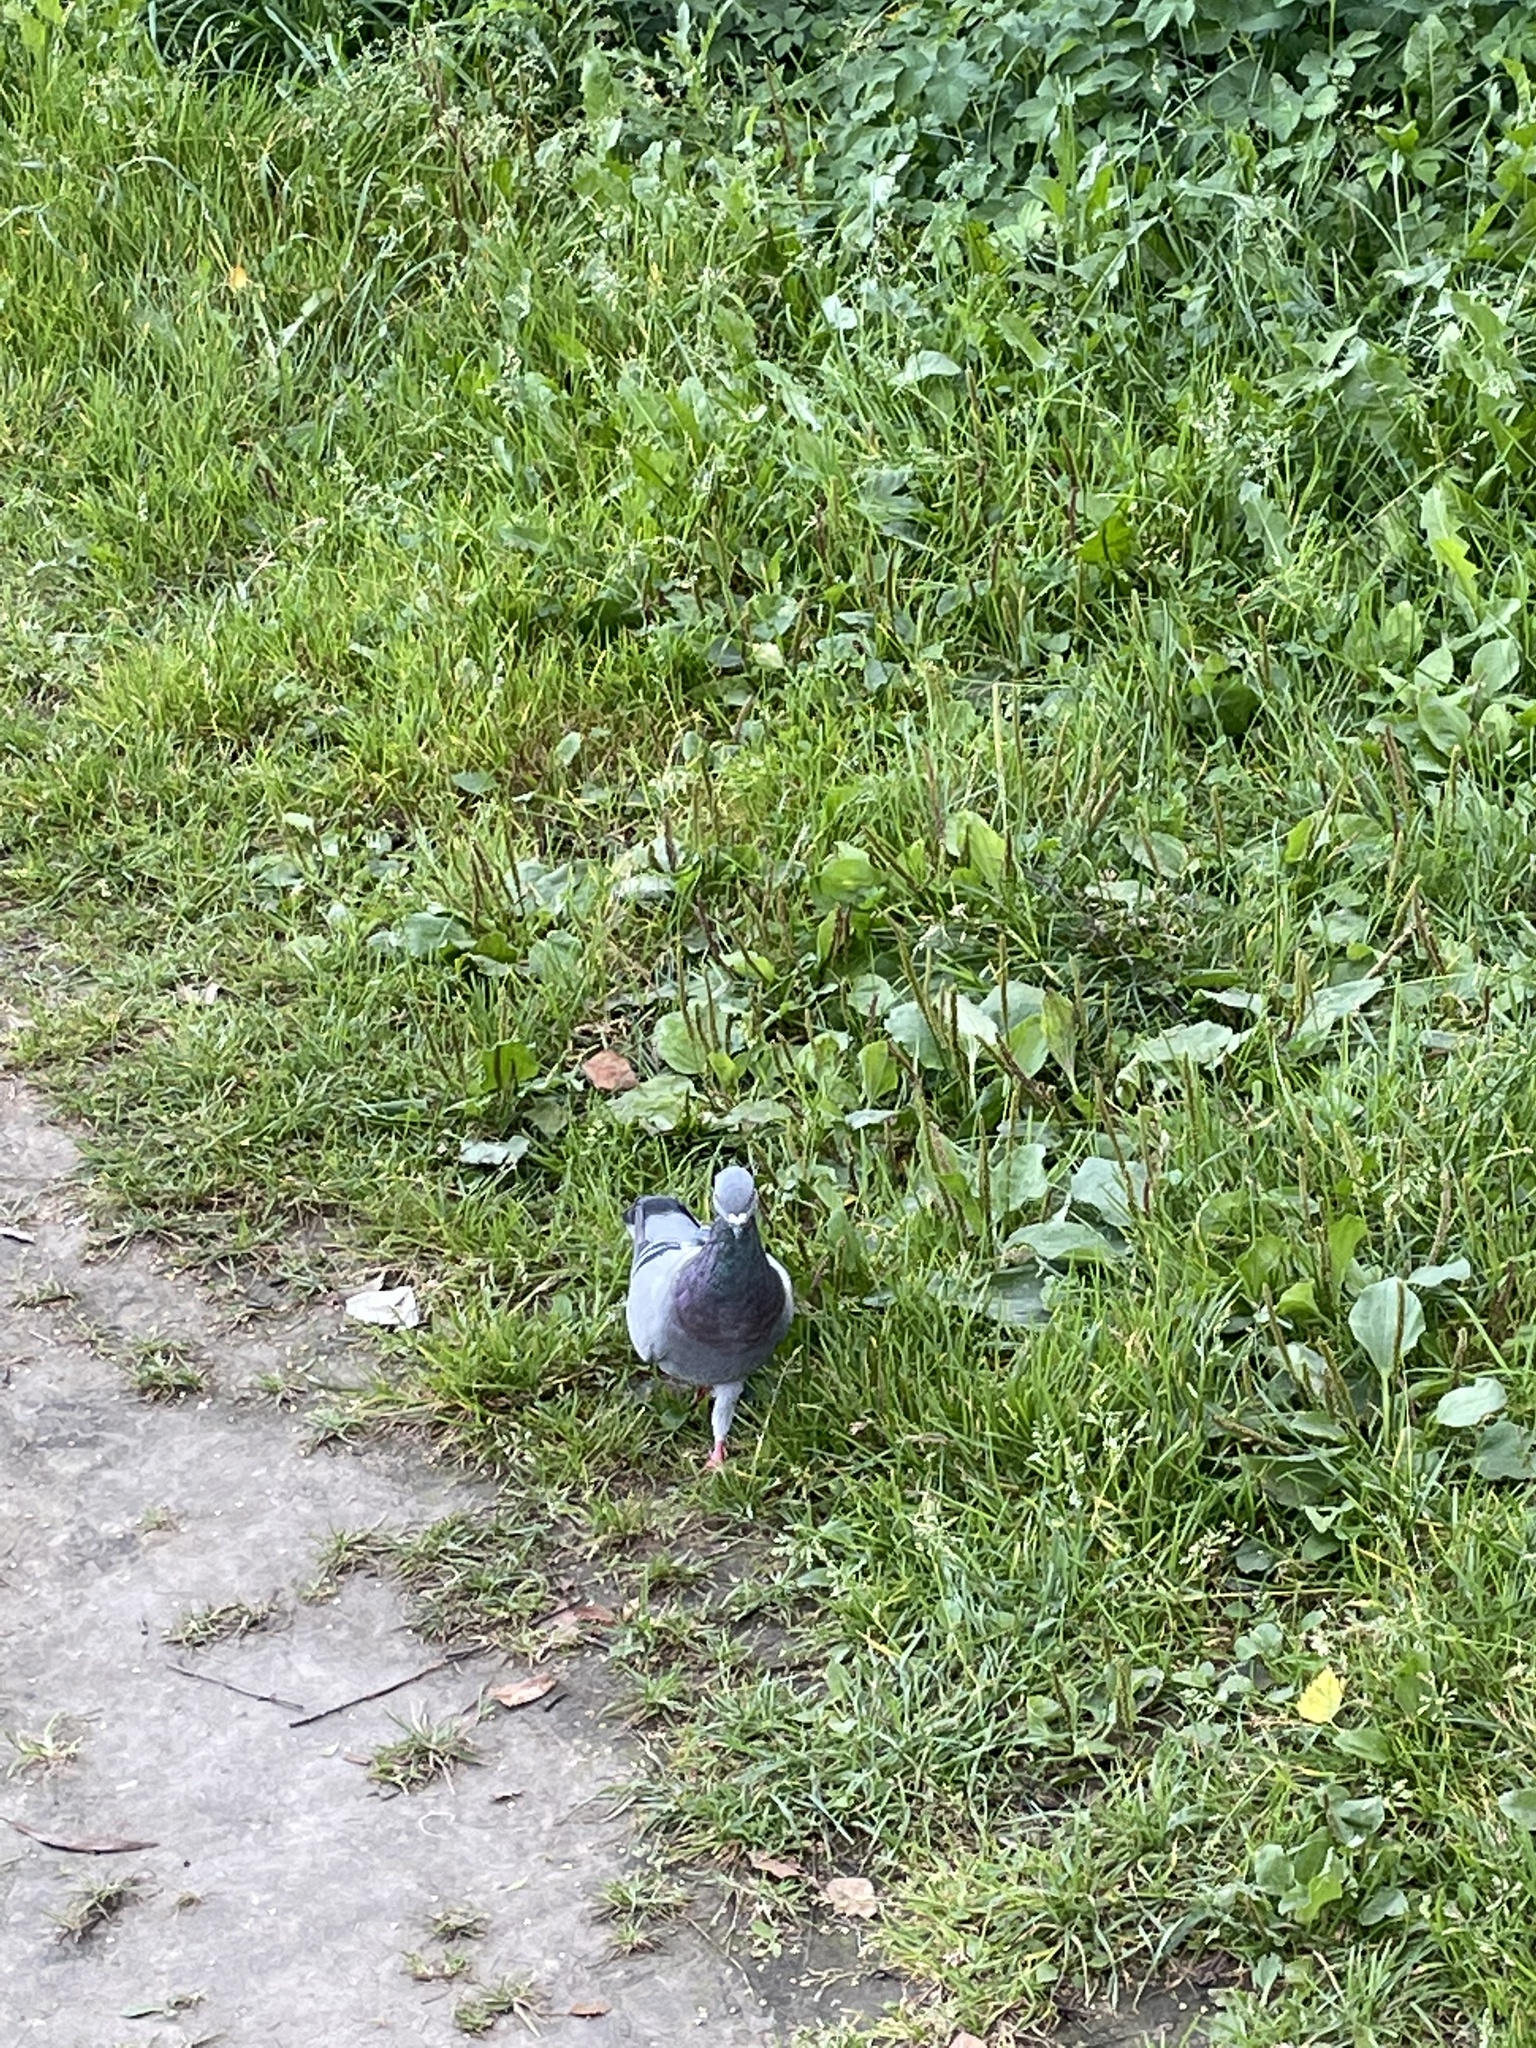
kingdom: Animalia
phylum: Chordata
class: Aves
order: Columbiformes
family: Columbidae
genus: Columba
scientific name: Columba livia
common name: Rock pigeon
